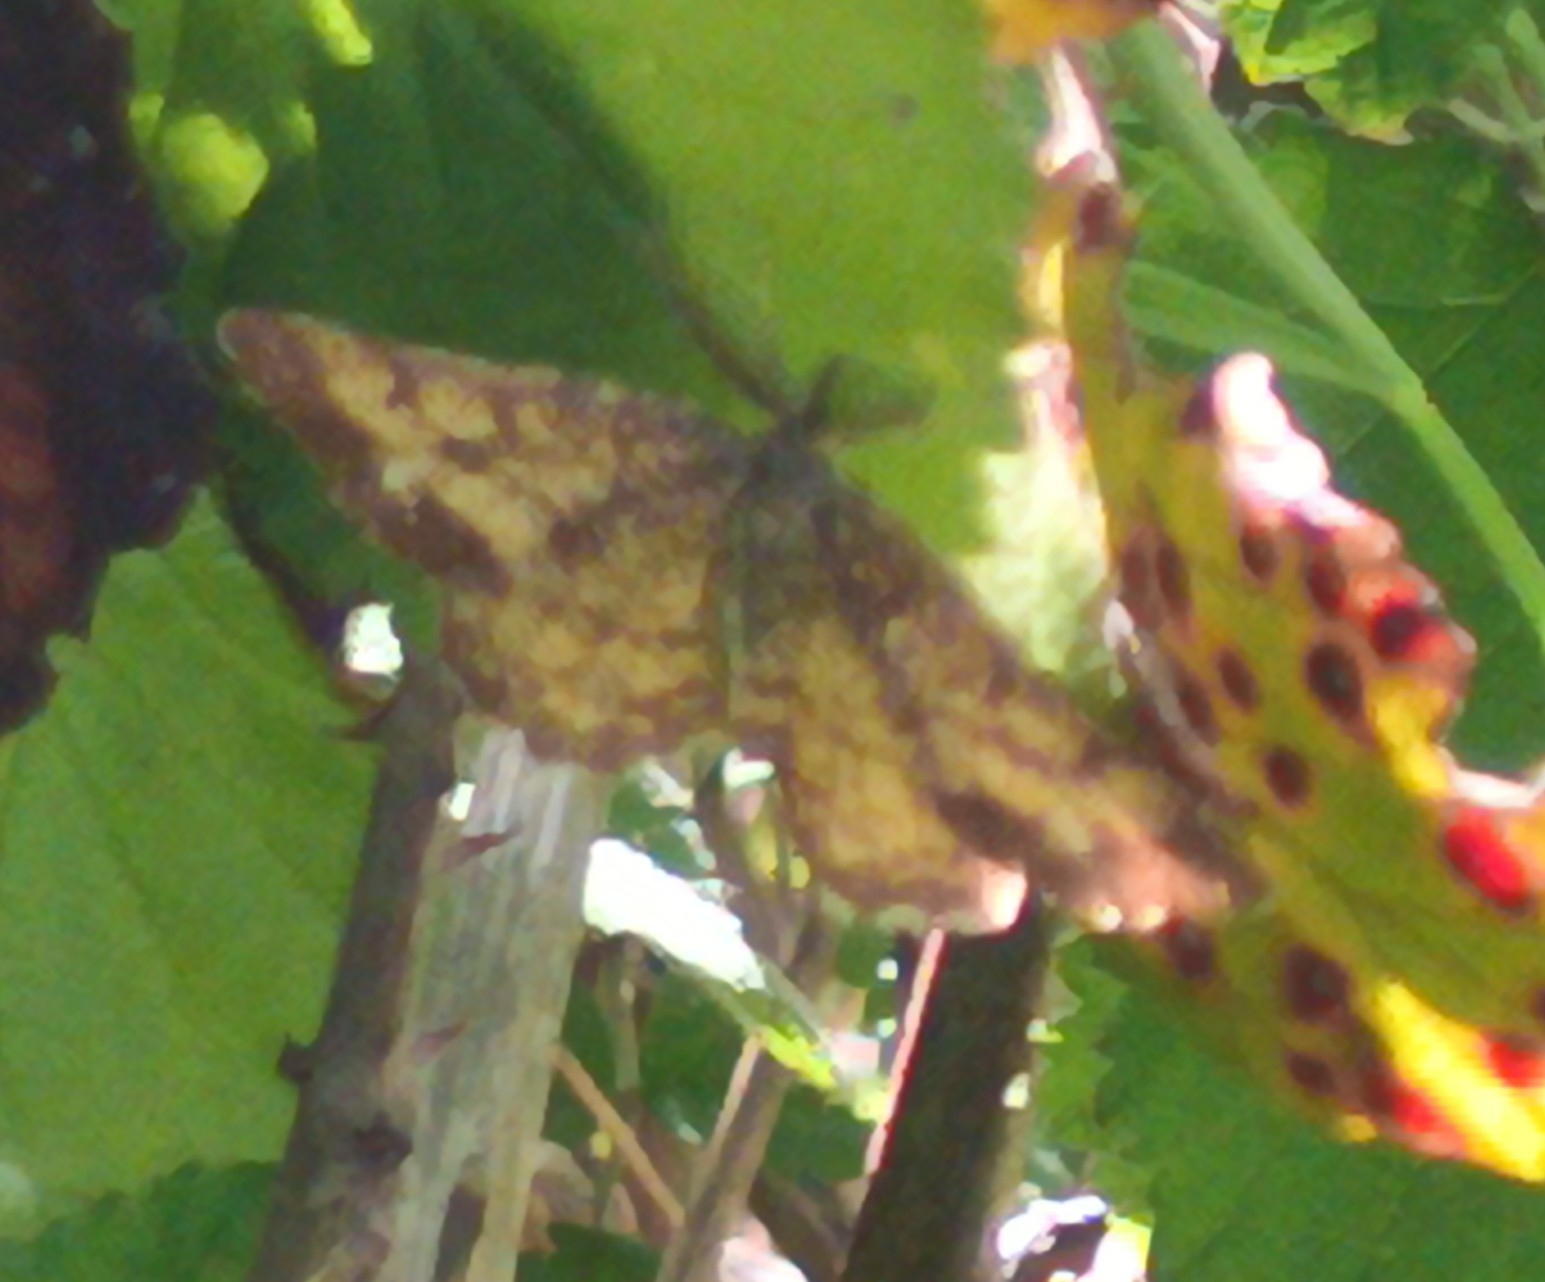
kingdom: Animalia
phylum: Arthropoda
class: Insecta
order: Lepidoptera
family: Geometridae
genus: Ematurga
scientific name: Ematurga atomaria
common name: Common heath
